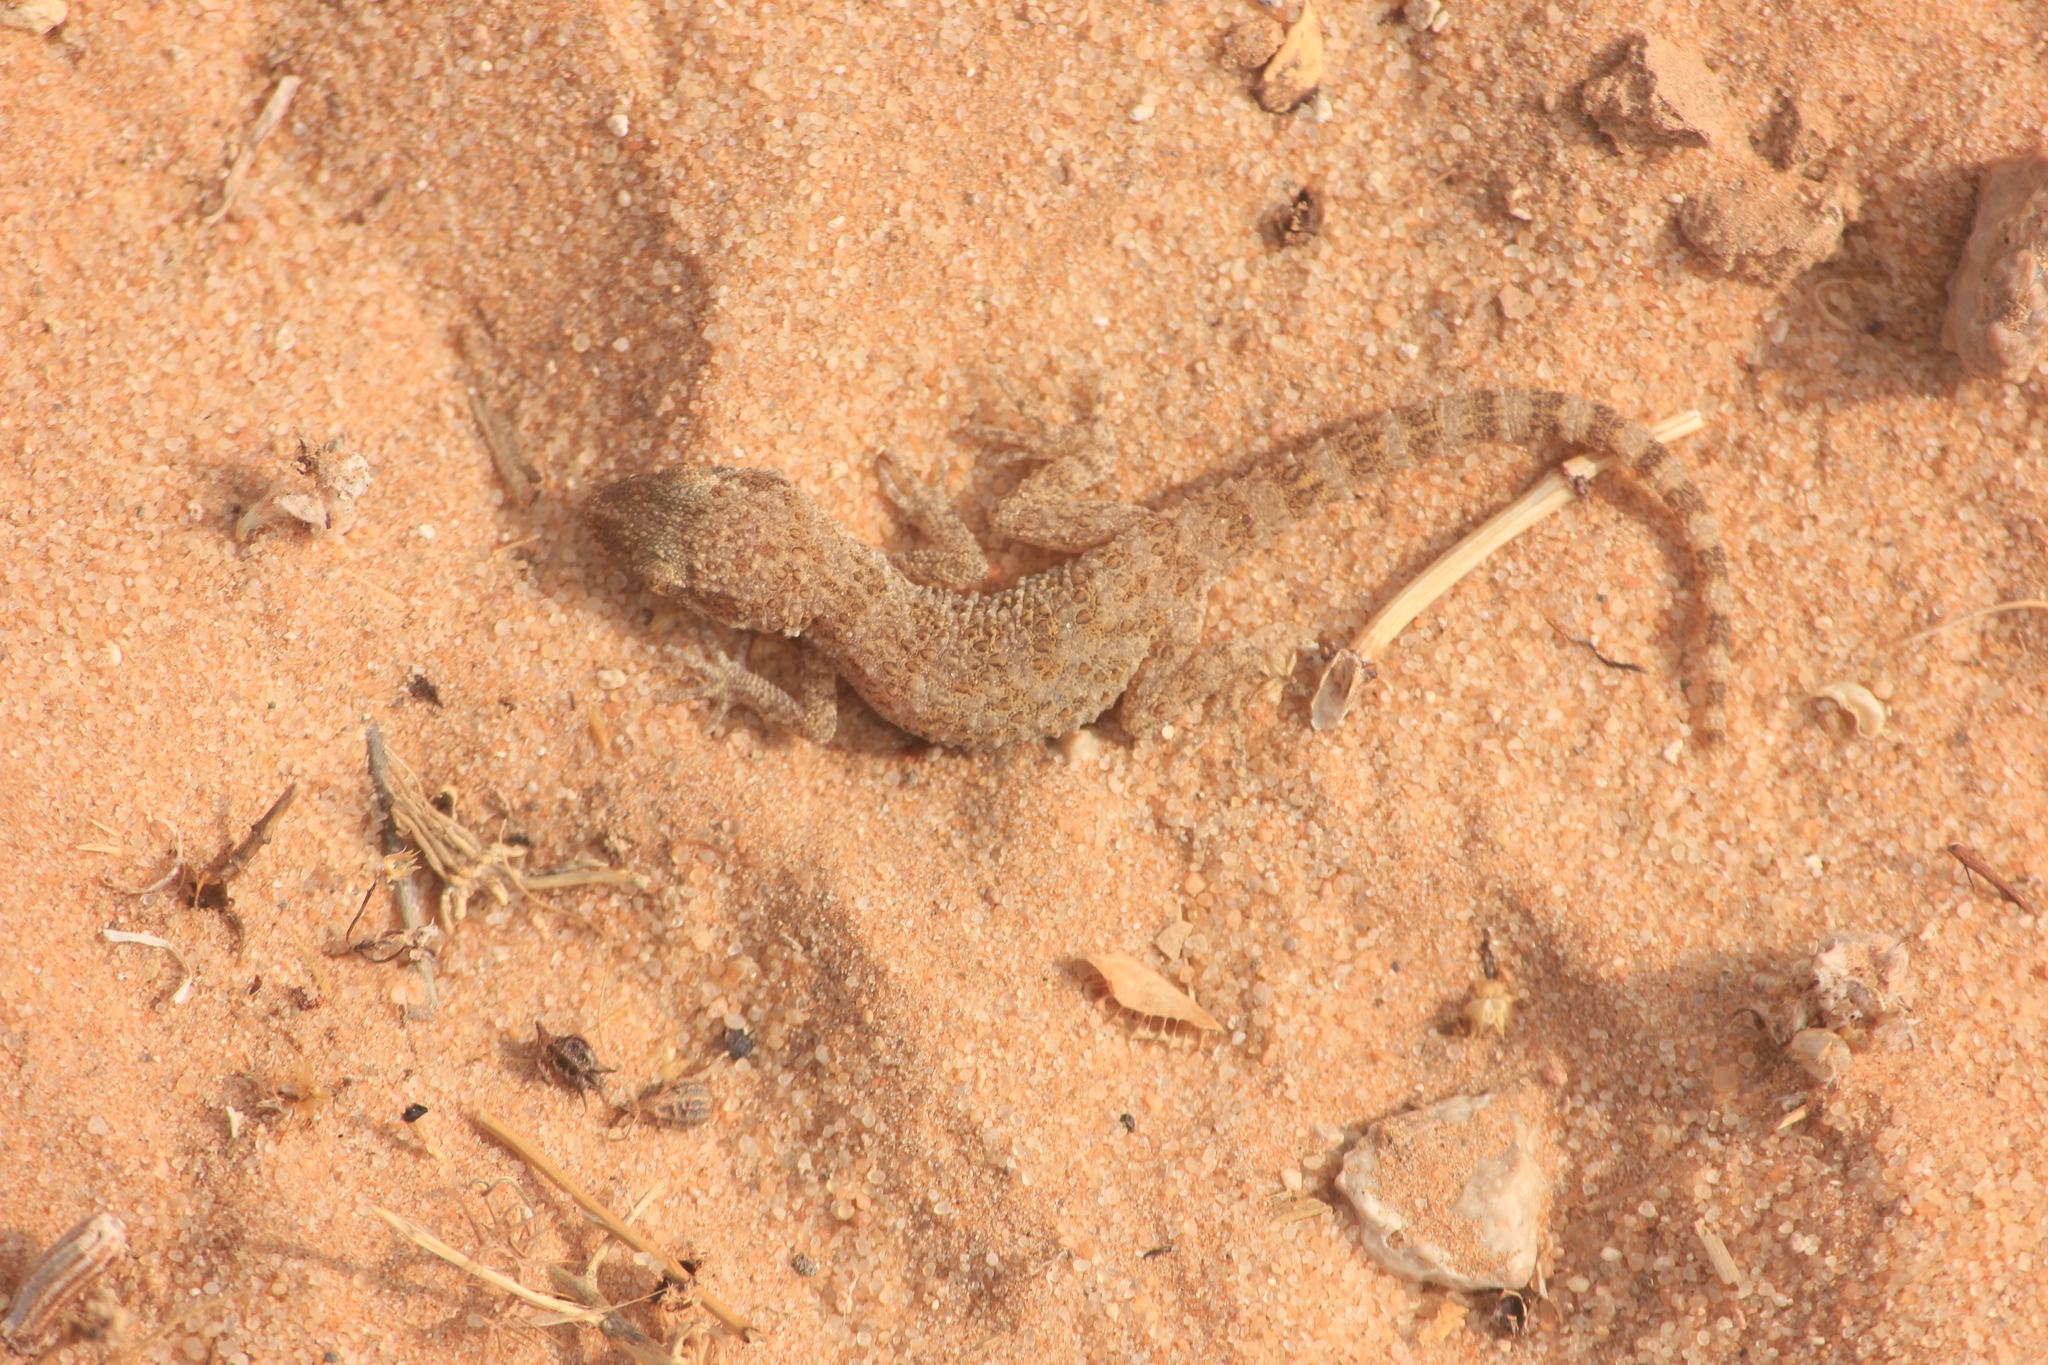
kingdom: Animalia
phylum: Chordata
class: Squamata
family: Gekkonidae
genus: Bunopus
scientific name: Bunopus tuberculatus
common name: Southern tuberculated gecko
